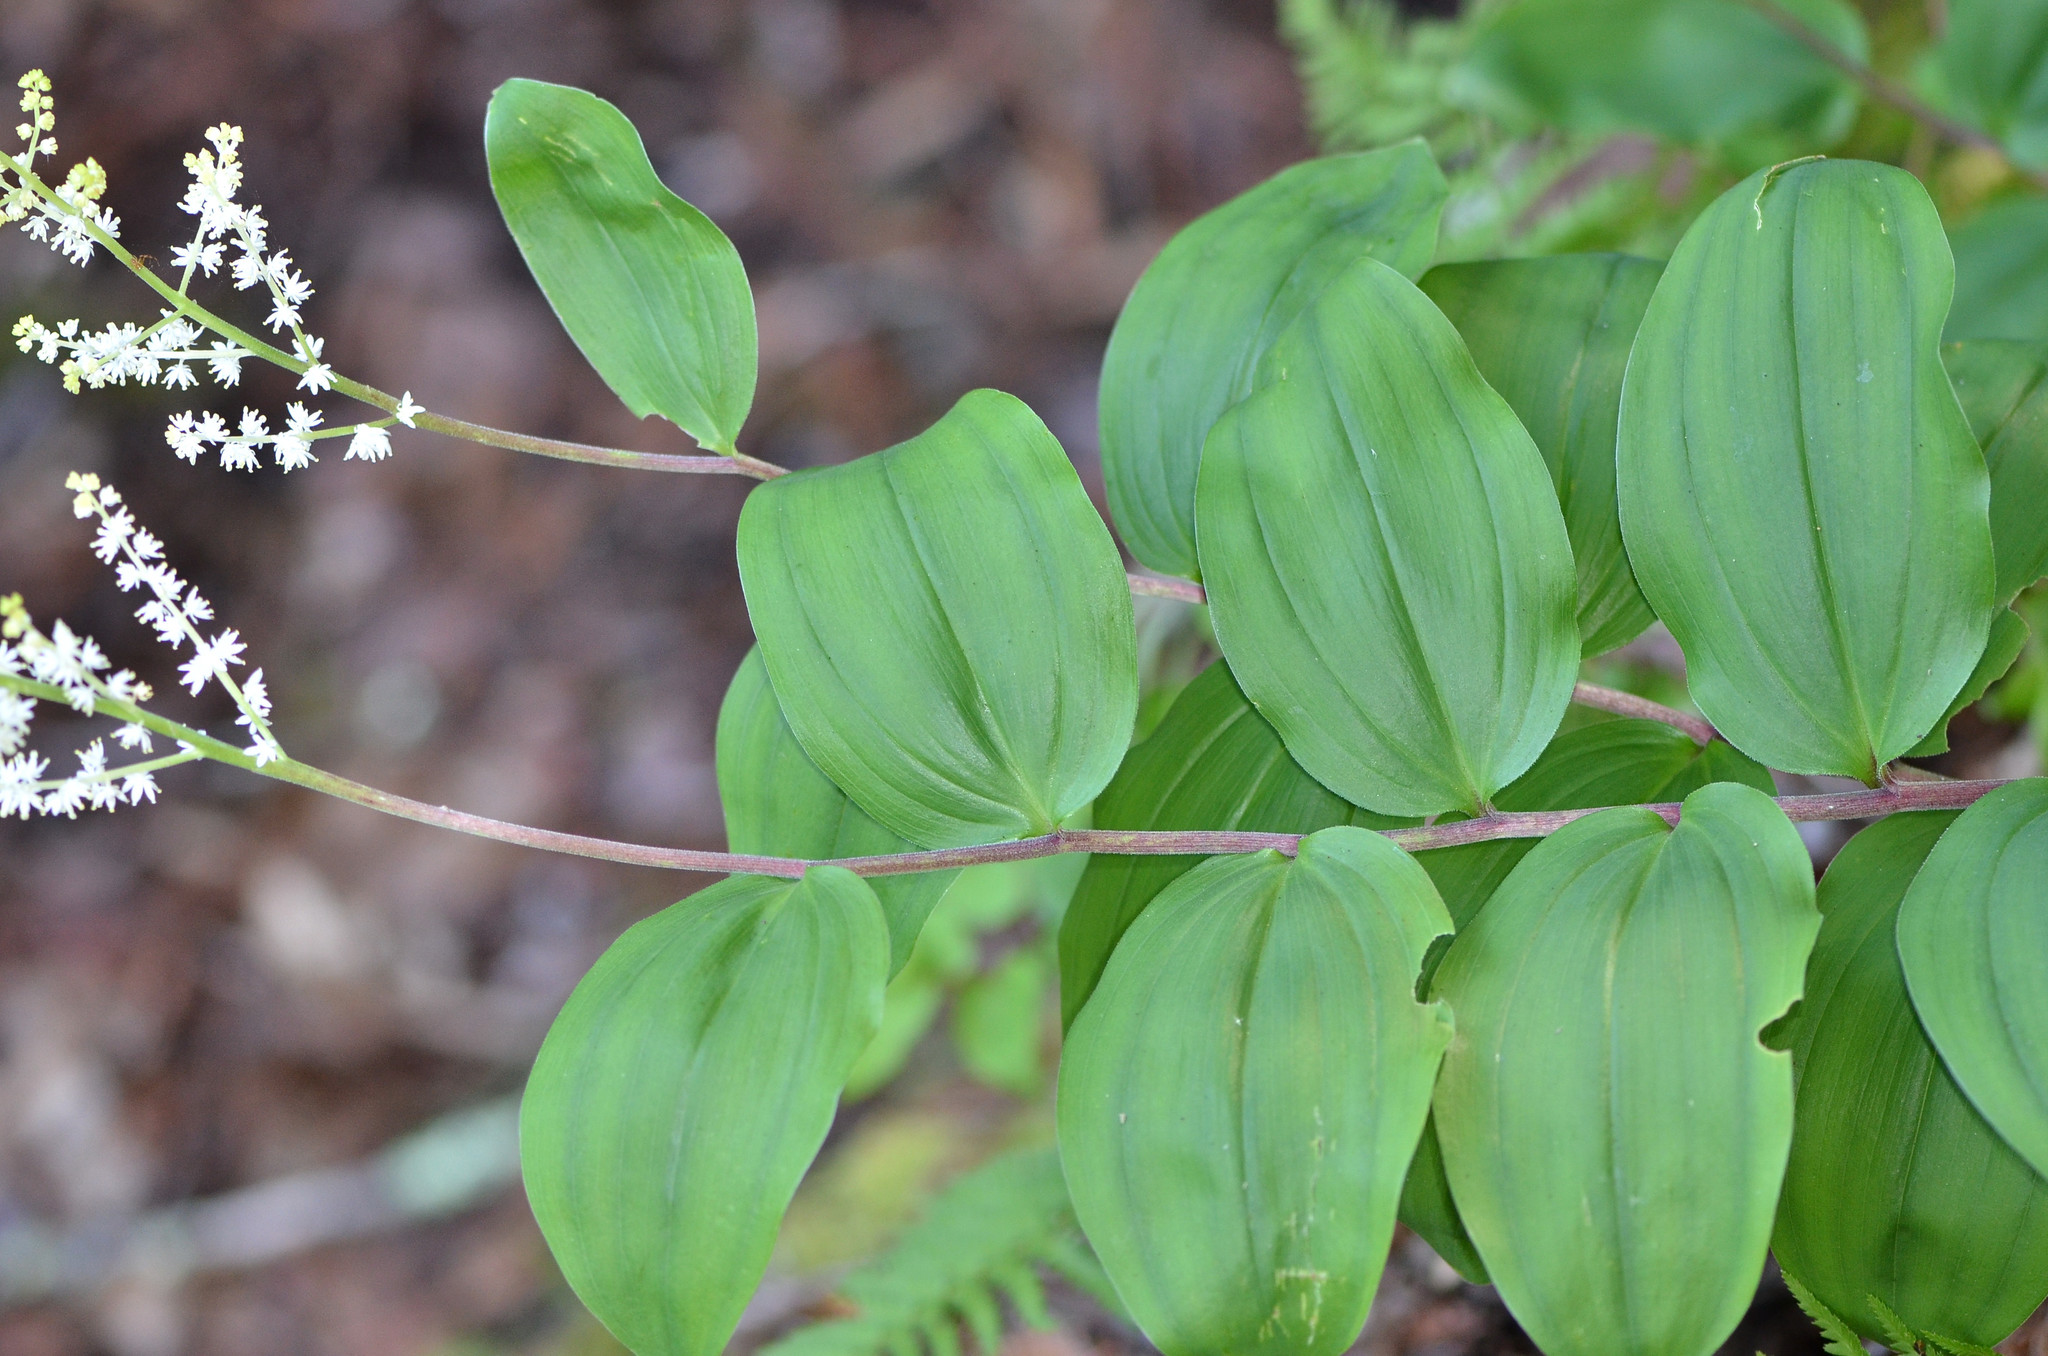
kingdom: Plantae
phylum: Tracheophyta
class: Liliopsida
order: Asparagales
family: Asparagaceae
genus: Maianthemum
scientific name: Maianthemum racemosum
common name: False spikenard
